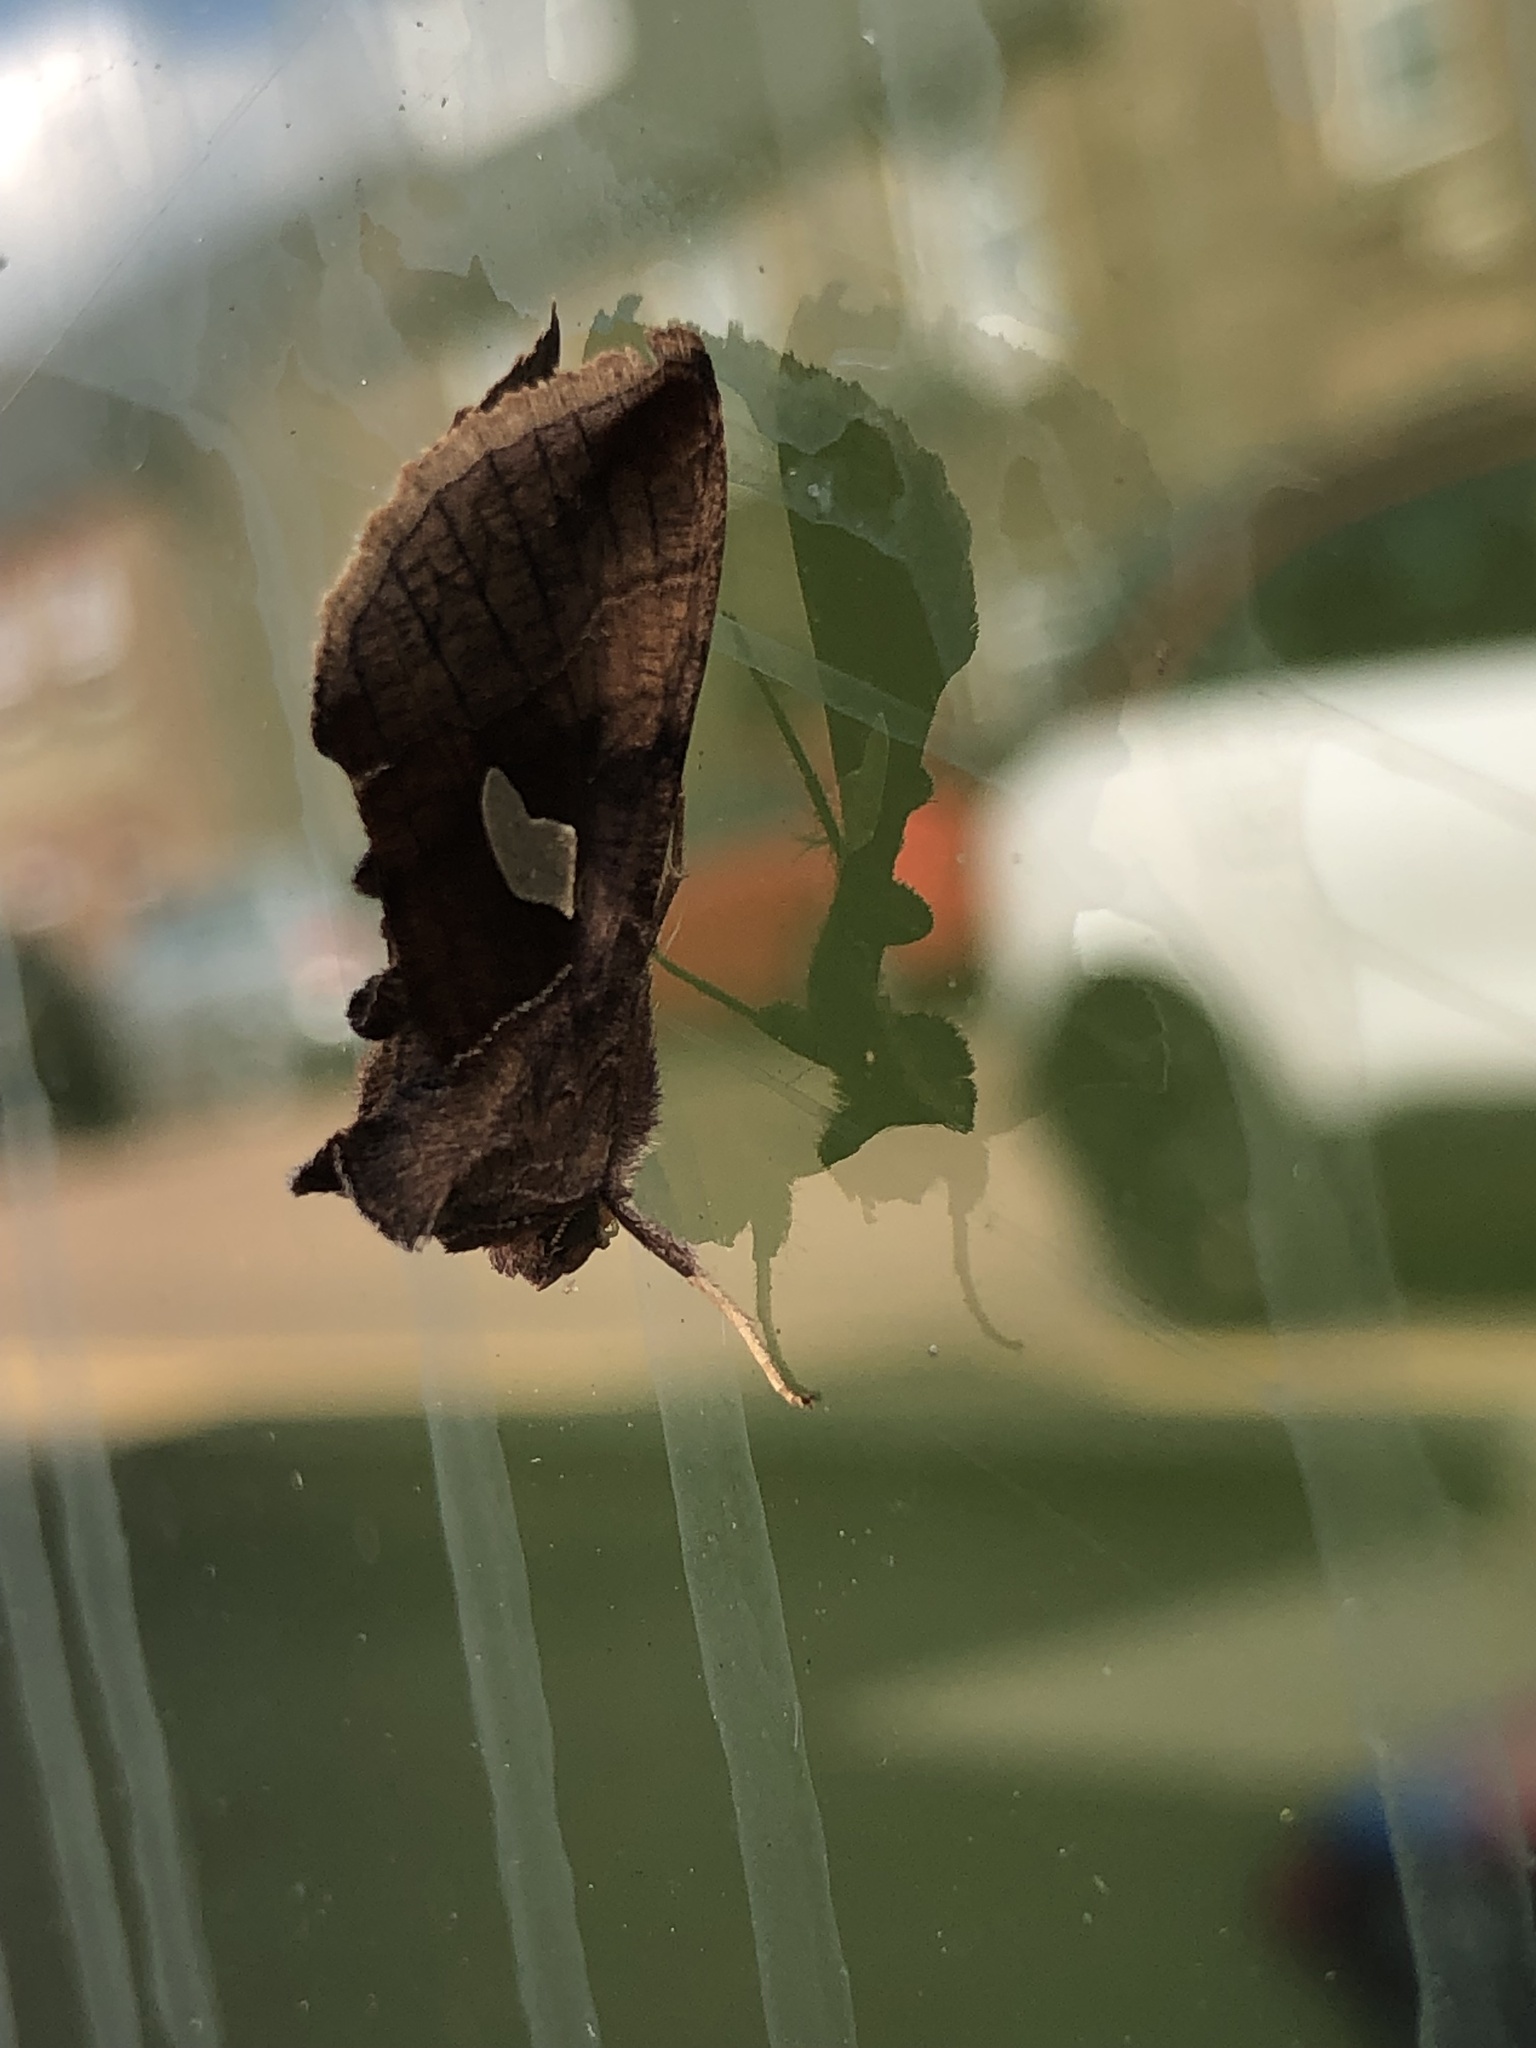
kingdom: Animalia
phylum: Arthropoda
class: Insecta
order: Lepidoptera
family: Noctuidae
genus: Autographa
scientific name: Autographa bractea
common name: Gold spangle
